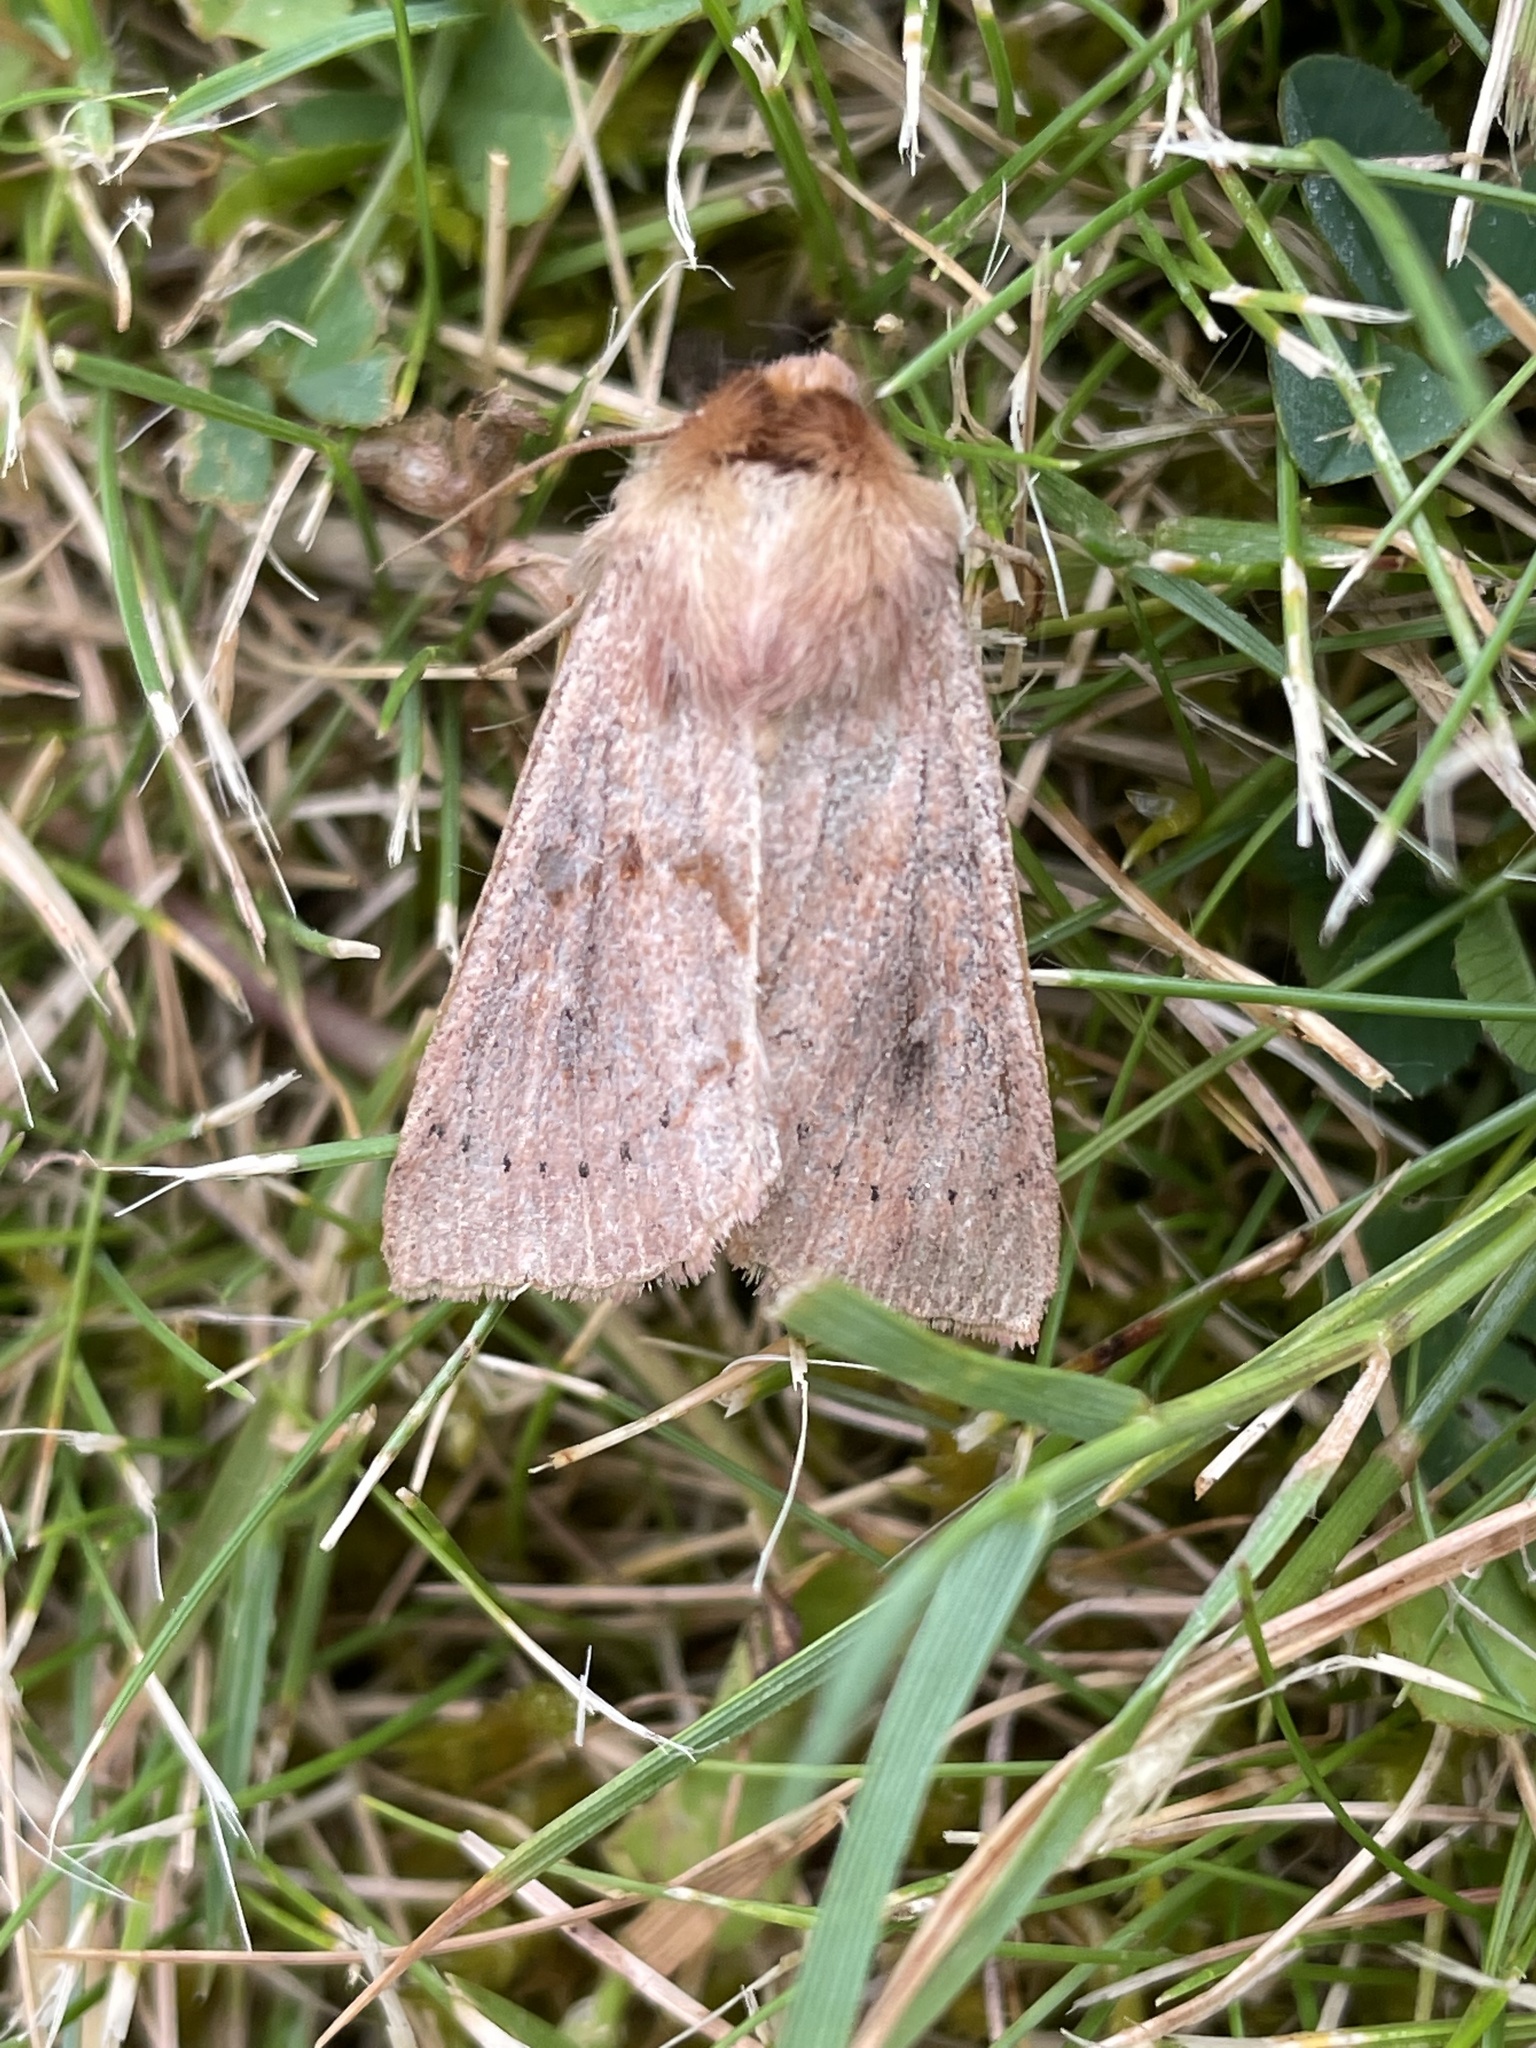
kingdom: Animalia
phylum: Arthropoda
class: Insecta
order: Lepidoptera
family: Noctuidae
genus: Mythimna
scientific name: Mythimna ferrago
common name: Clay
